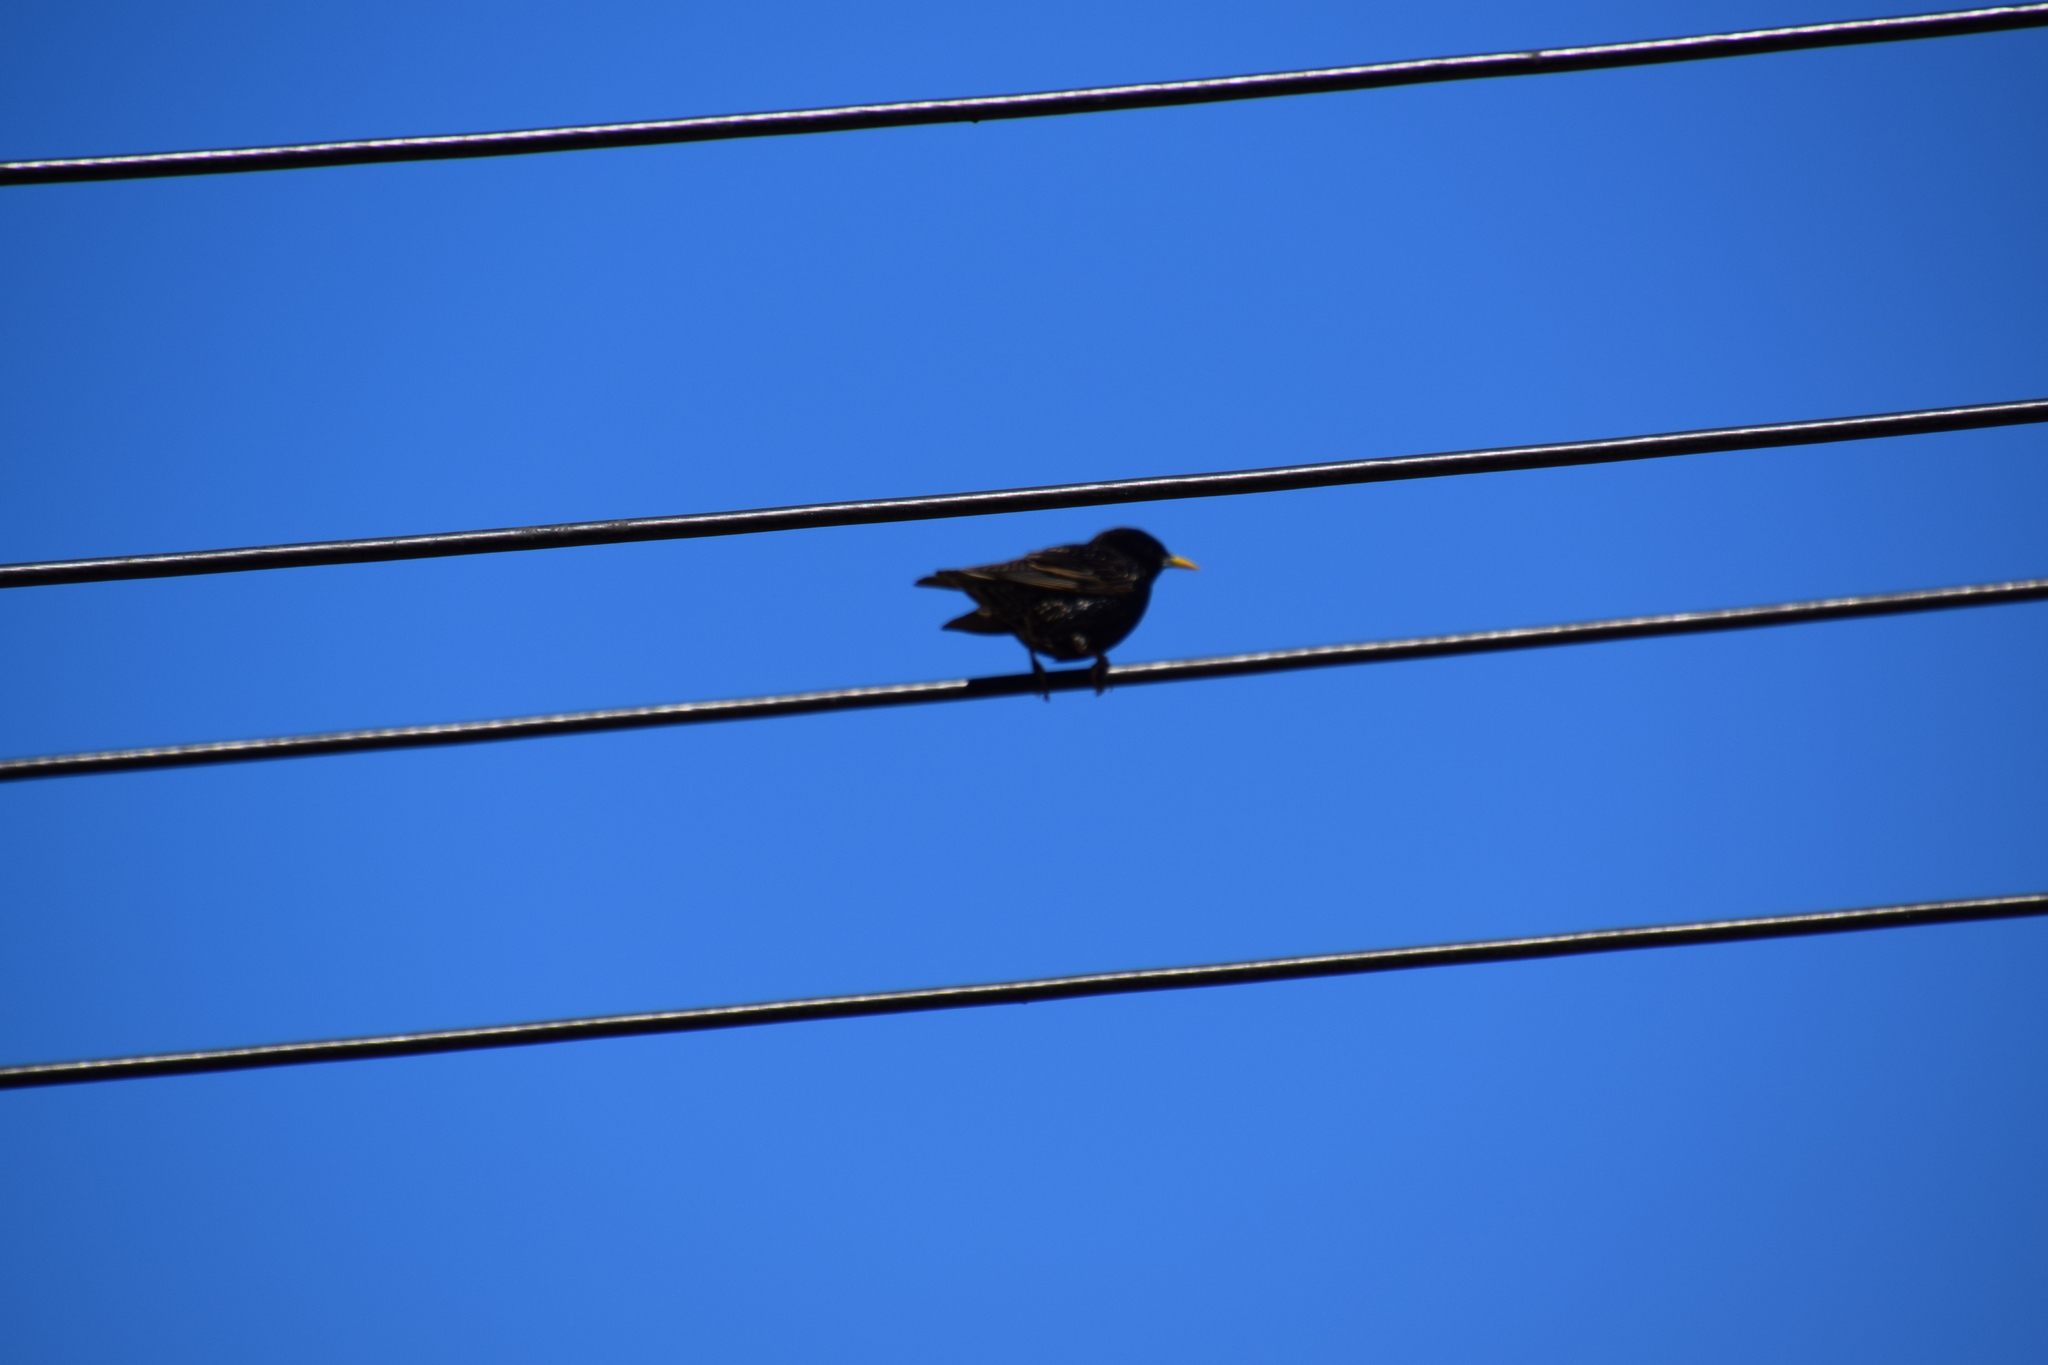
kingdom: Animalia
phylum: Chordata
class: Aves
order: Passeriformes
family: Sturnidae
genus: Sturnus
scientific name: Sturnus vulgaris
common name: Common starling
